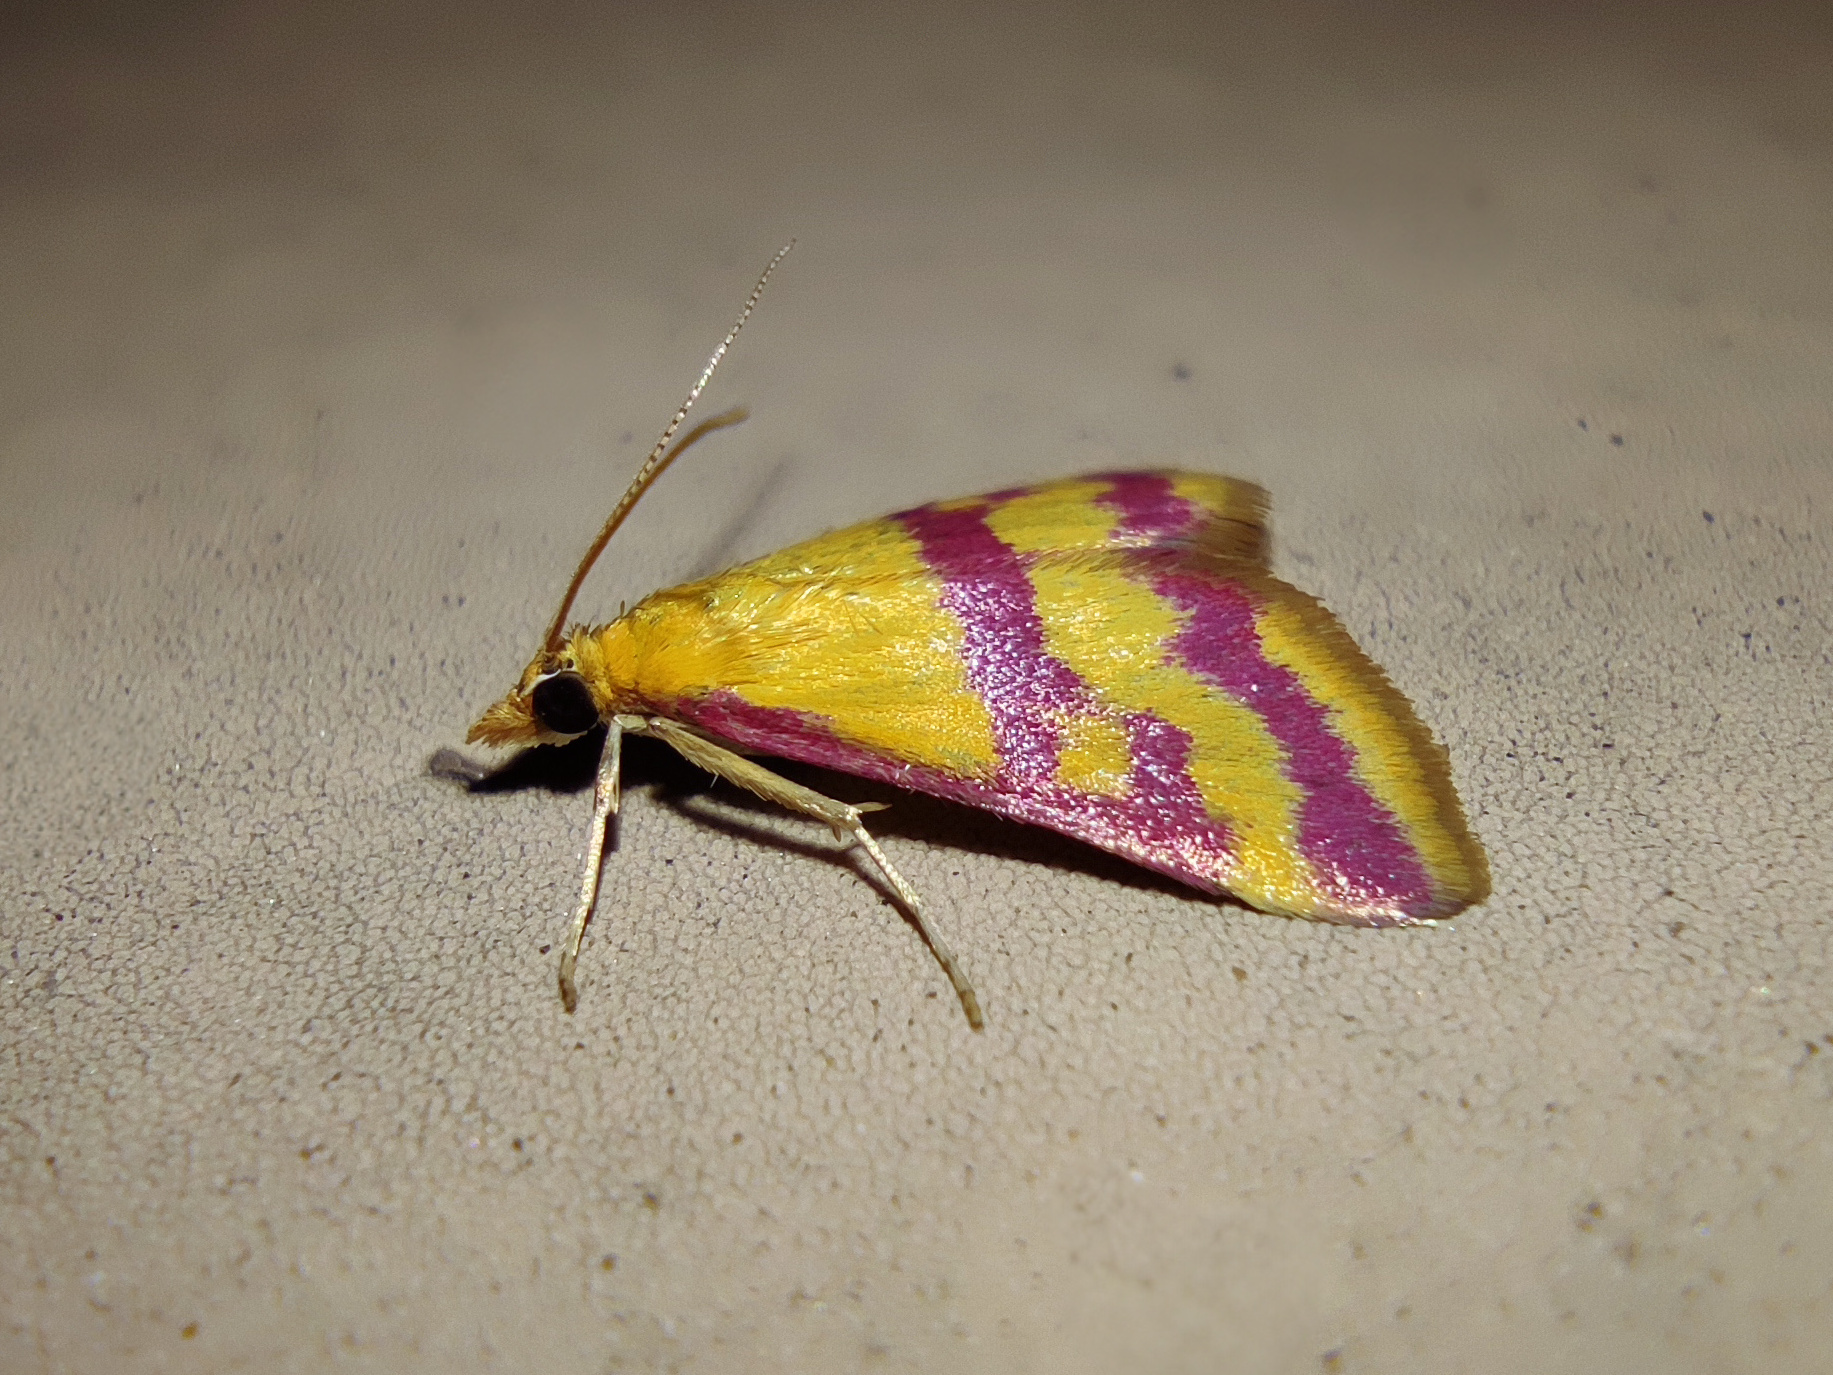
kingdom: Animalia
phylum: Arthropoda
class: Insecta
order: Lepidoptera
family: Crambidae
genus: Pyrausta
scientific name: Pyrausta sanguinalis
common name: Scarce crimson and gold
